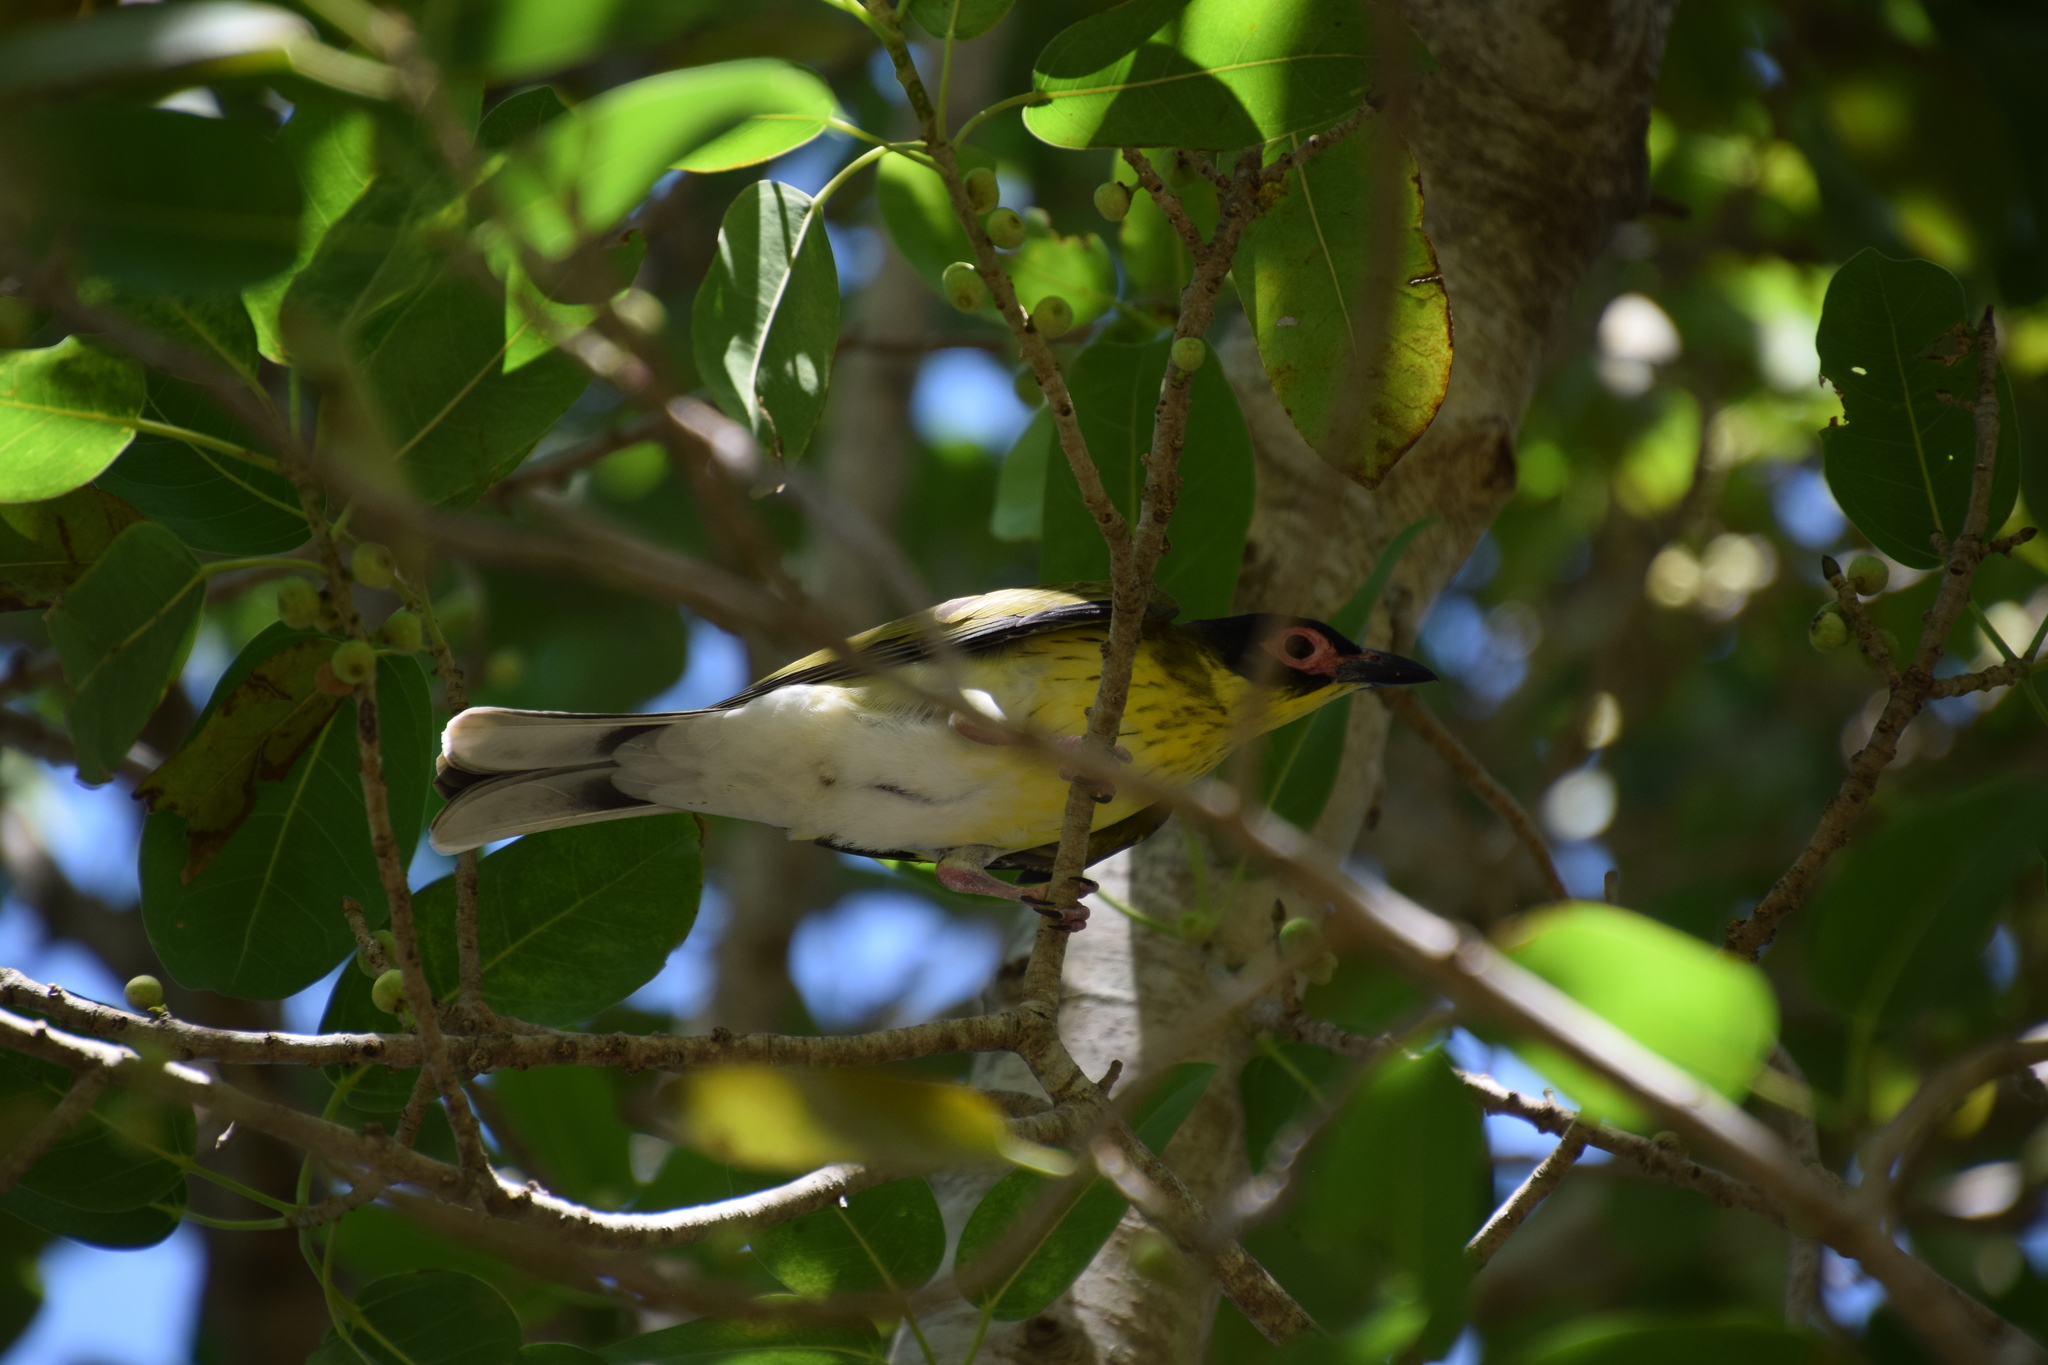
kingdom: Animalia
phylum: Chordata
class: Aves
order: Passeriformes
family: Oriolidae
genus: Sphecotheres
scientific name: Sphecotheres vieilloti
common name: Australasian figbird
